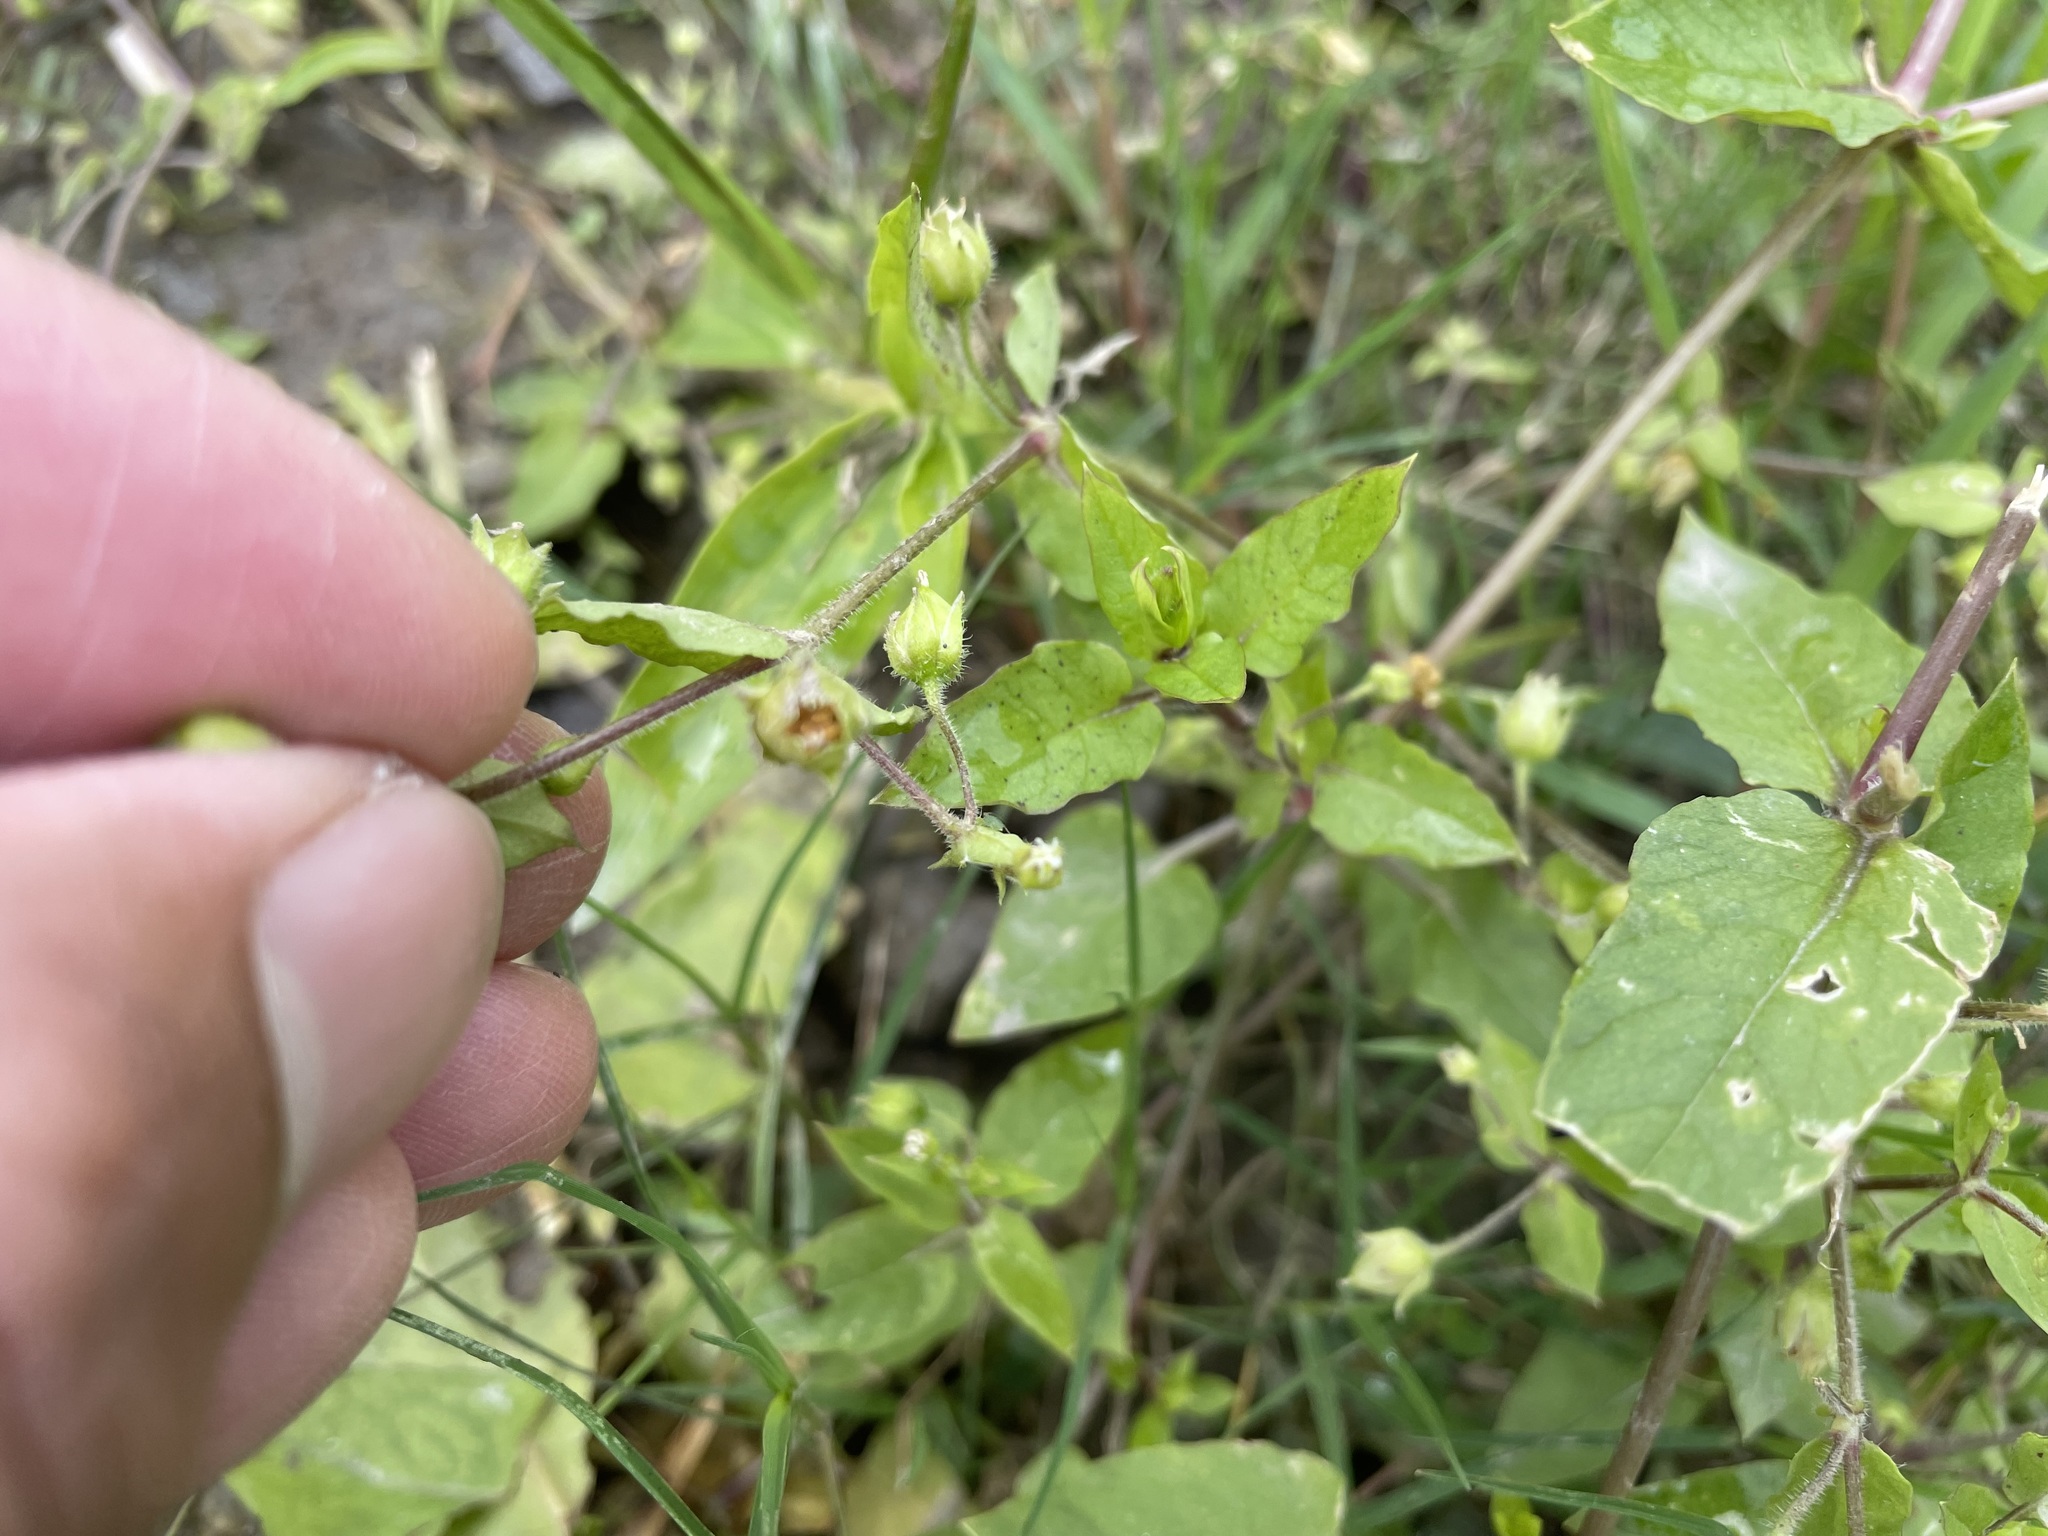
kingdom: Plantae
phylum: Tracheophyta
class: Magnoliopsida
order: Caryophyllales
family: Caryophyllaceae
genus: Stellaria
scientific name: Stellaria aquatica
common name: Water chickweed
